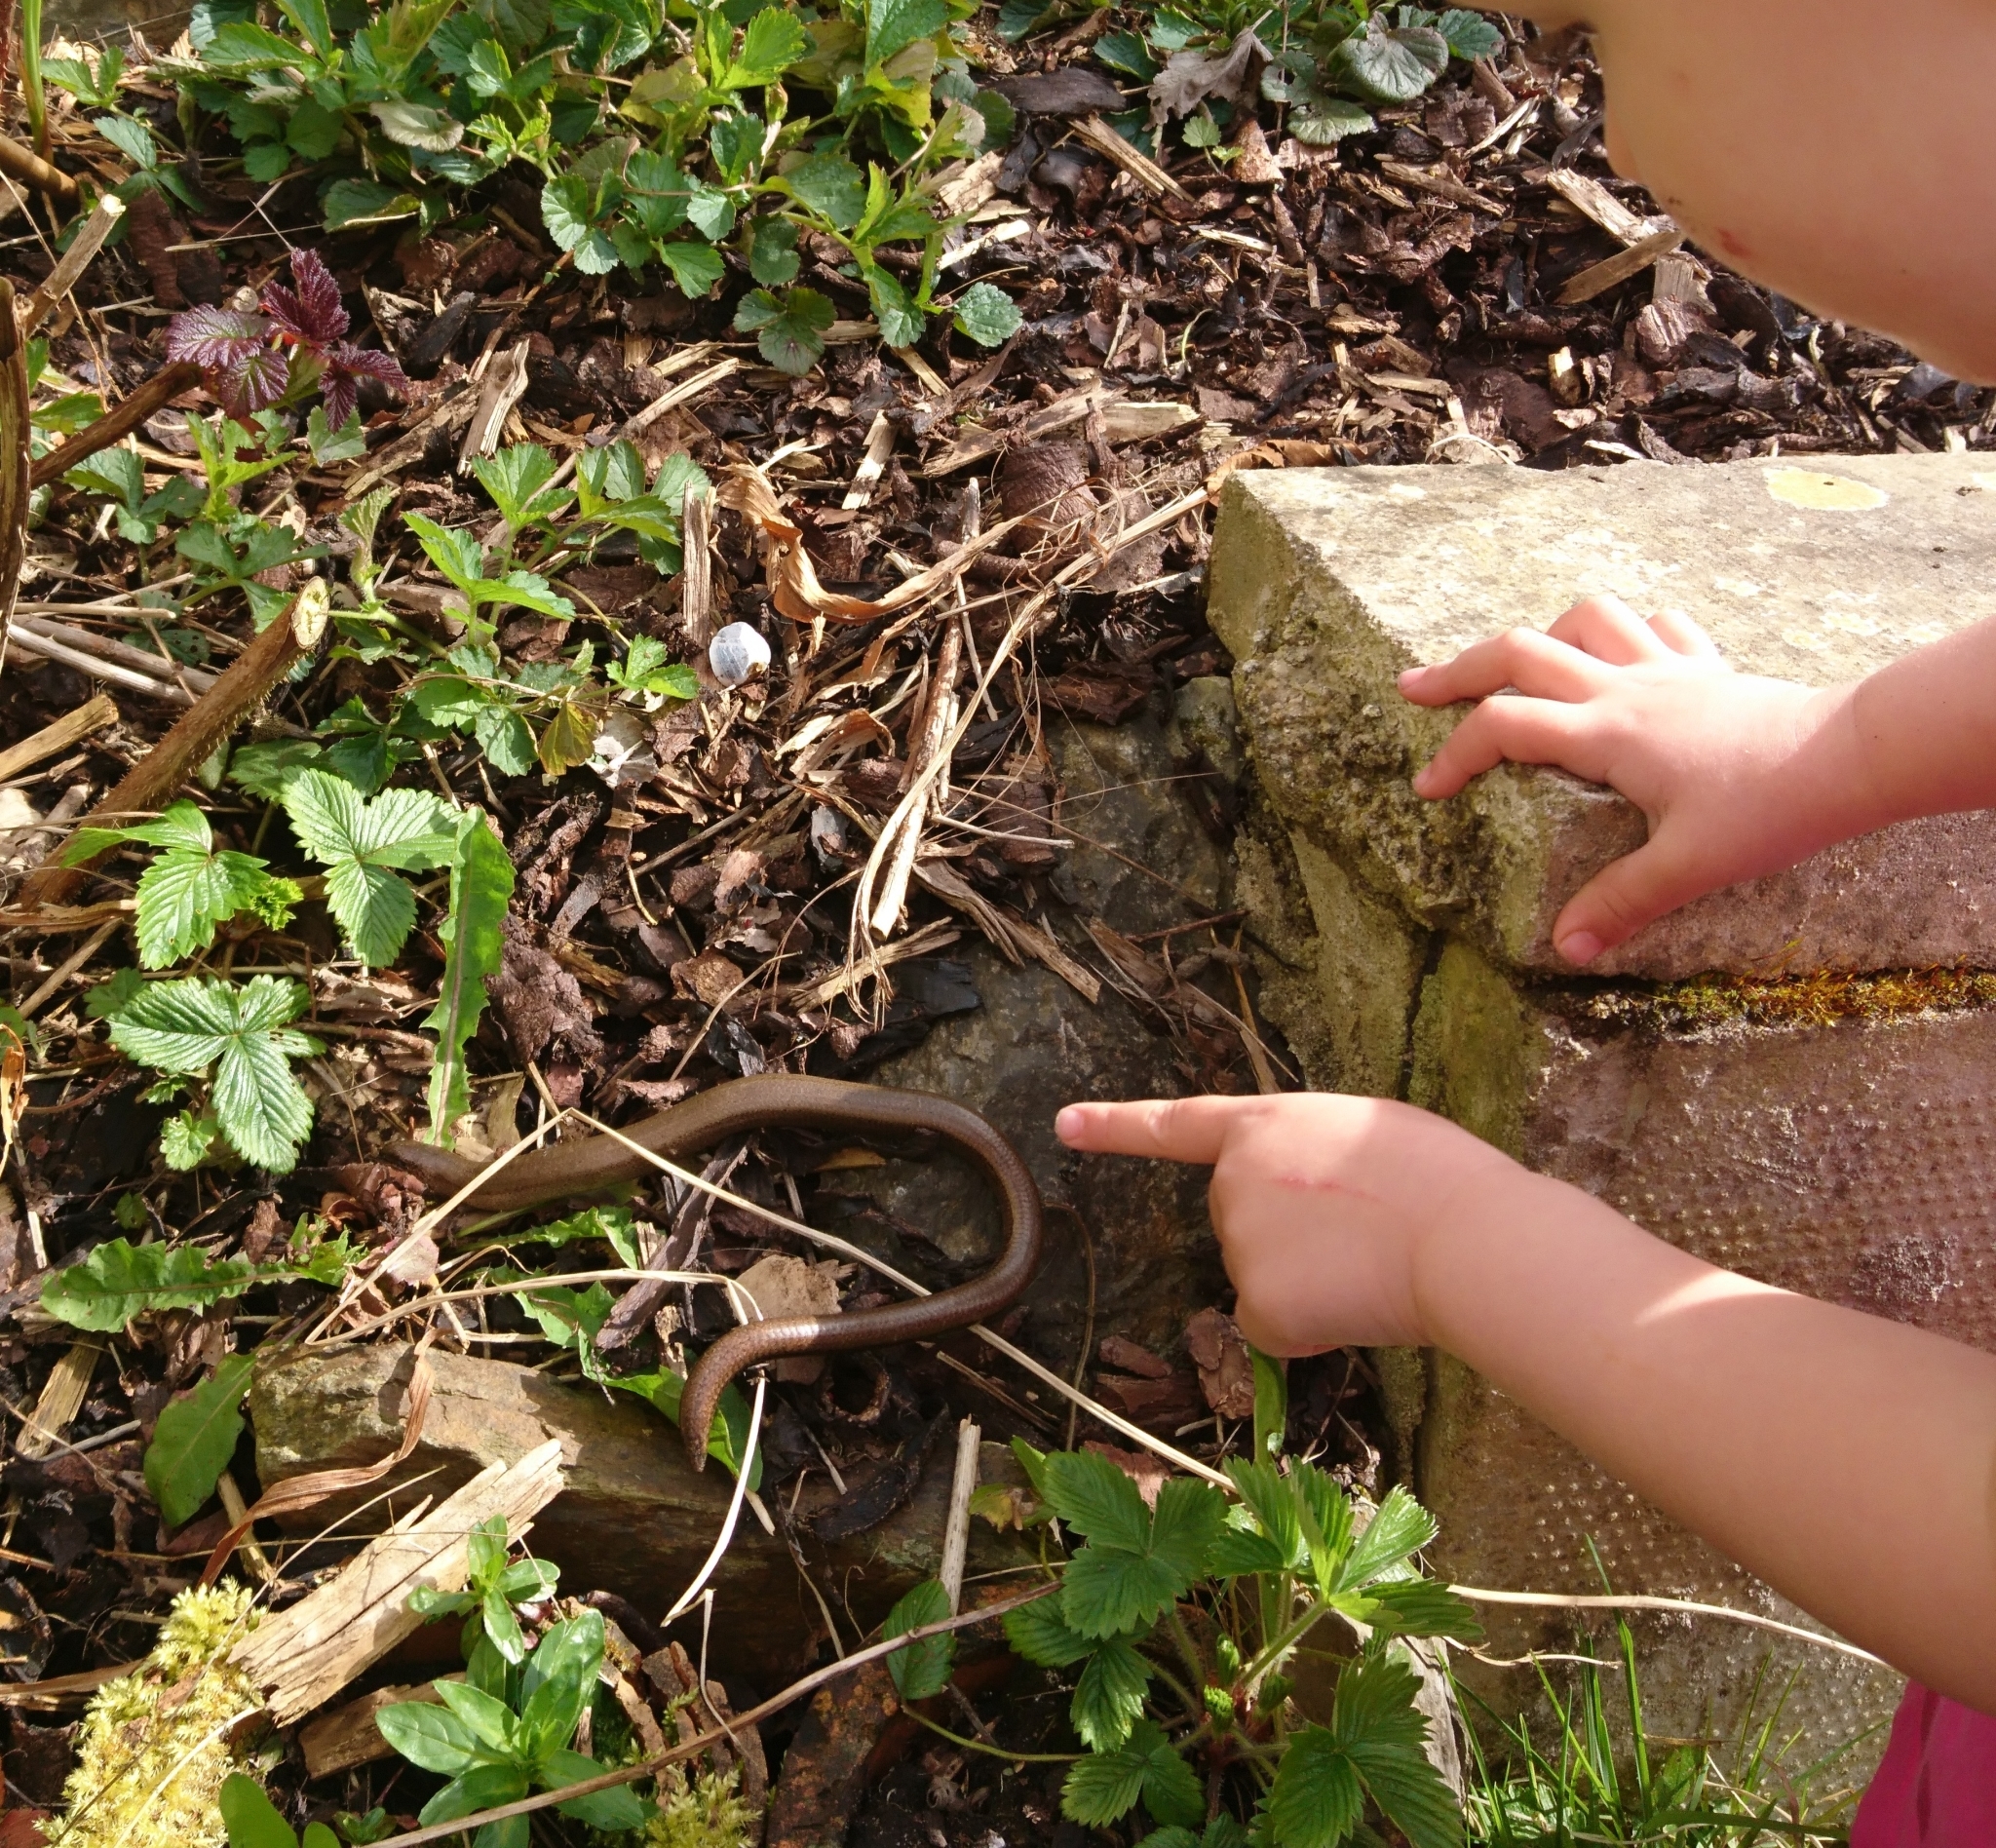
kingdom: Animalia
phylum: Chordata
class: Squamata
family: Anguidae
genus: Anguis
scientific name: Anguis fragilis
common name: Slow worm
